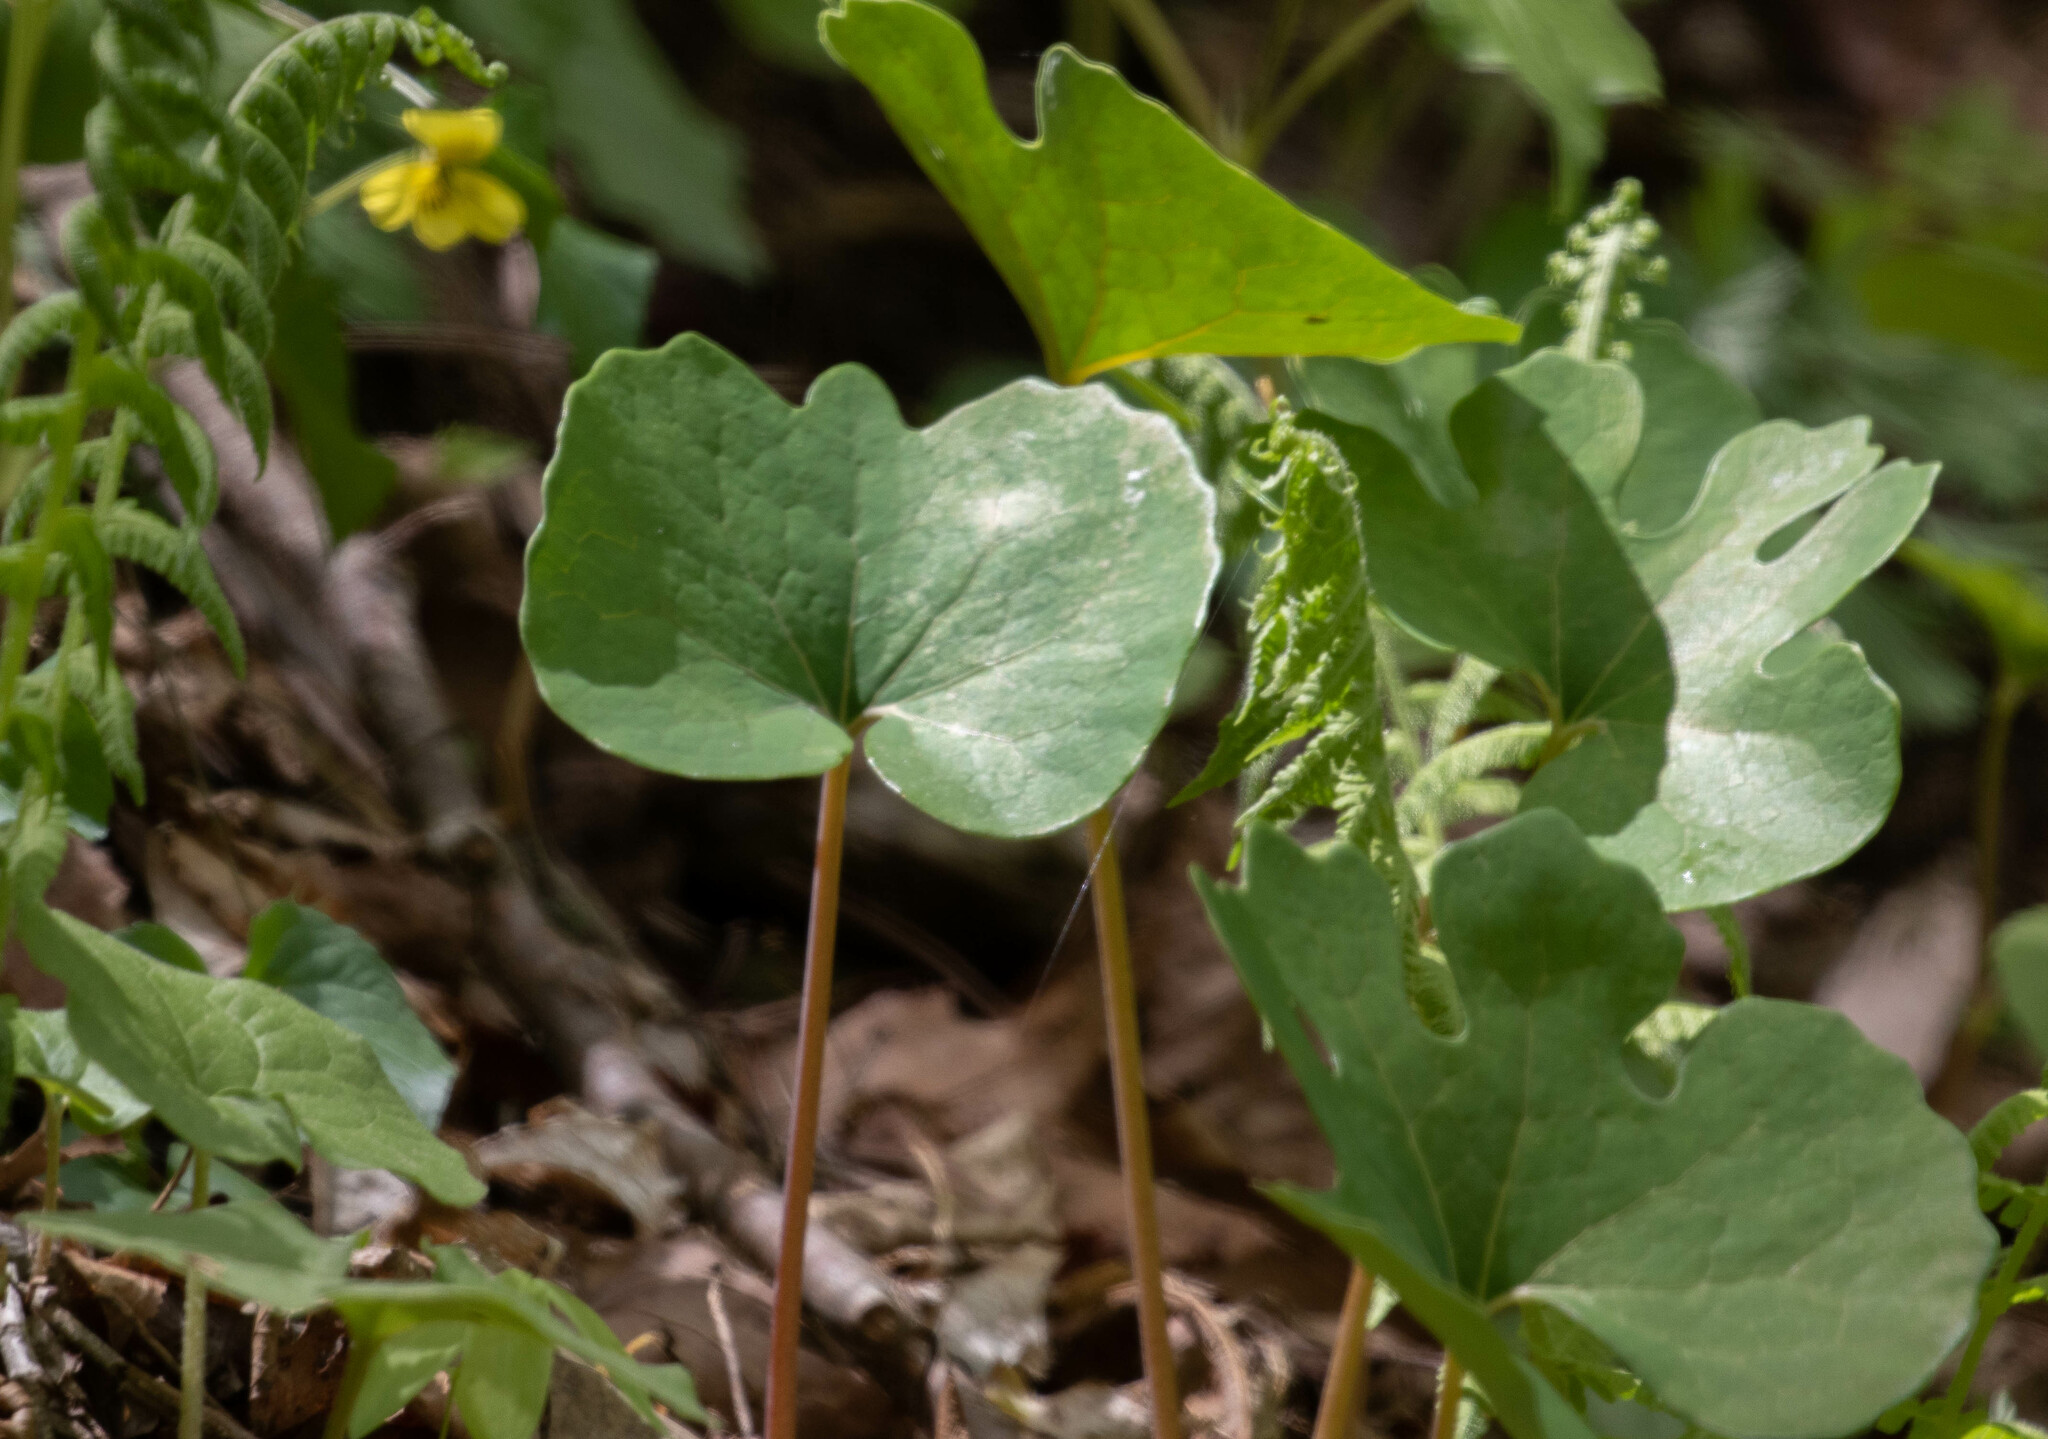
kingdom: Plantae
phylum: Tracheophyta
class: Magnoliopsida
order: Ranunculales
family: Papaveraceae
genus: Sanguinaria
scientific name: Sanguinaria canadensis
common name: Bloodroot
